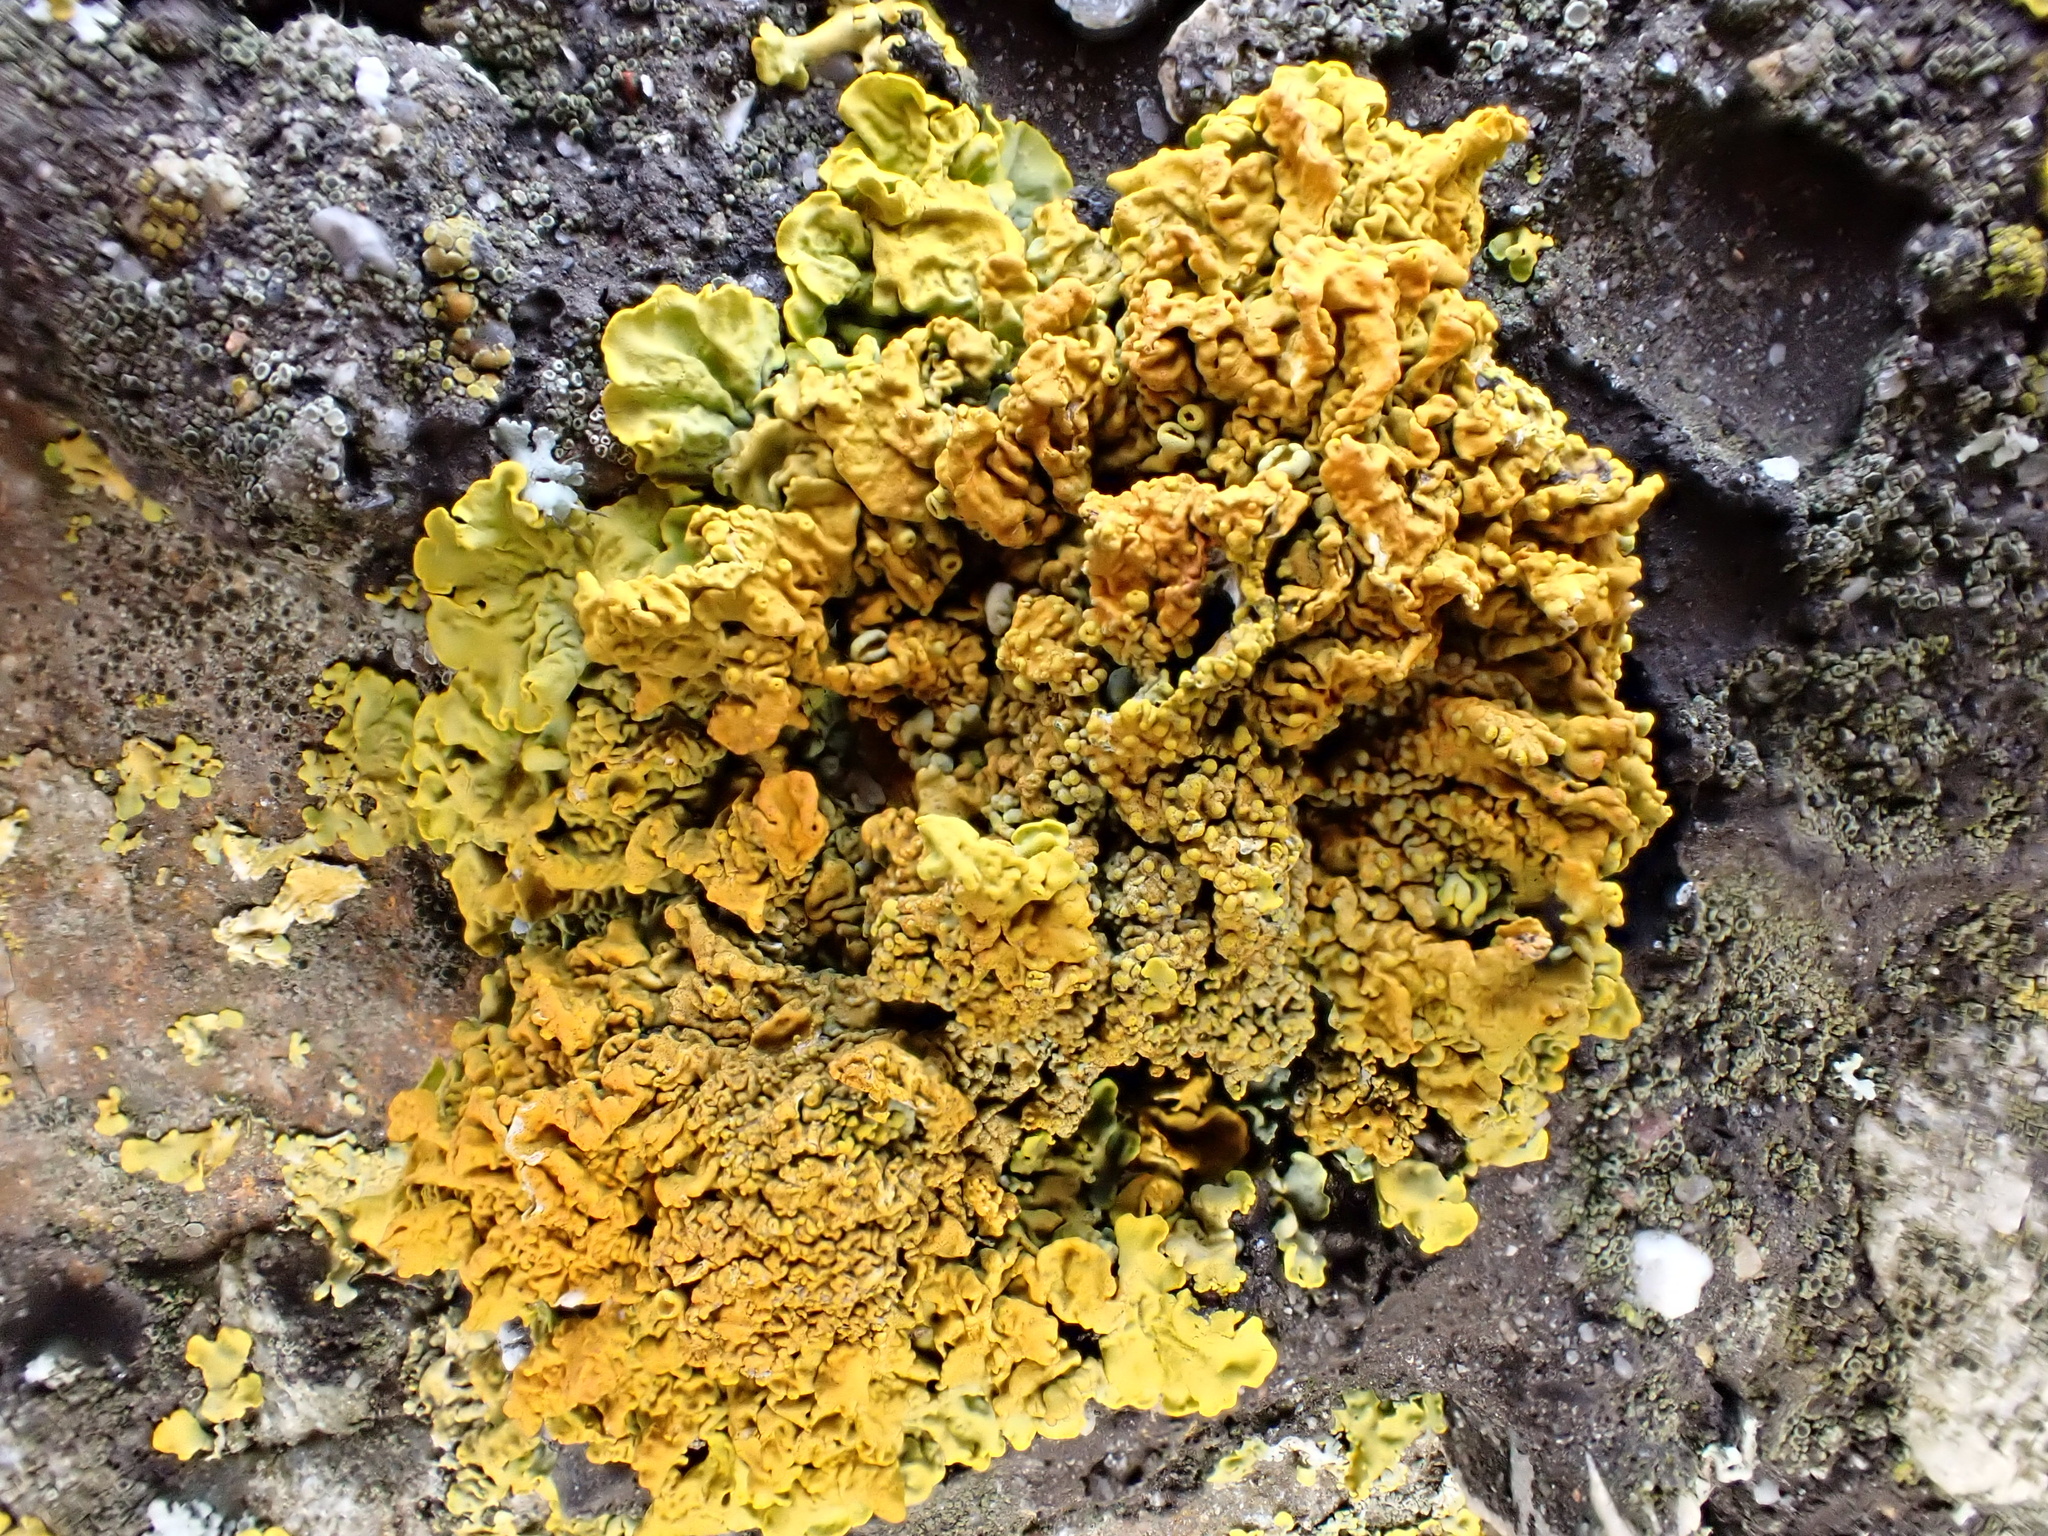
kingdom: Fungi
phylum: Ascomycota
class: Lecanoromycetes
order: Teloschistales
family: Teloschistaceae
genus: Xanthoria
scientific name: Xanthoria calcicola
